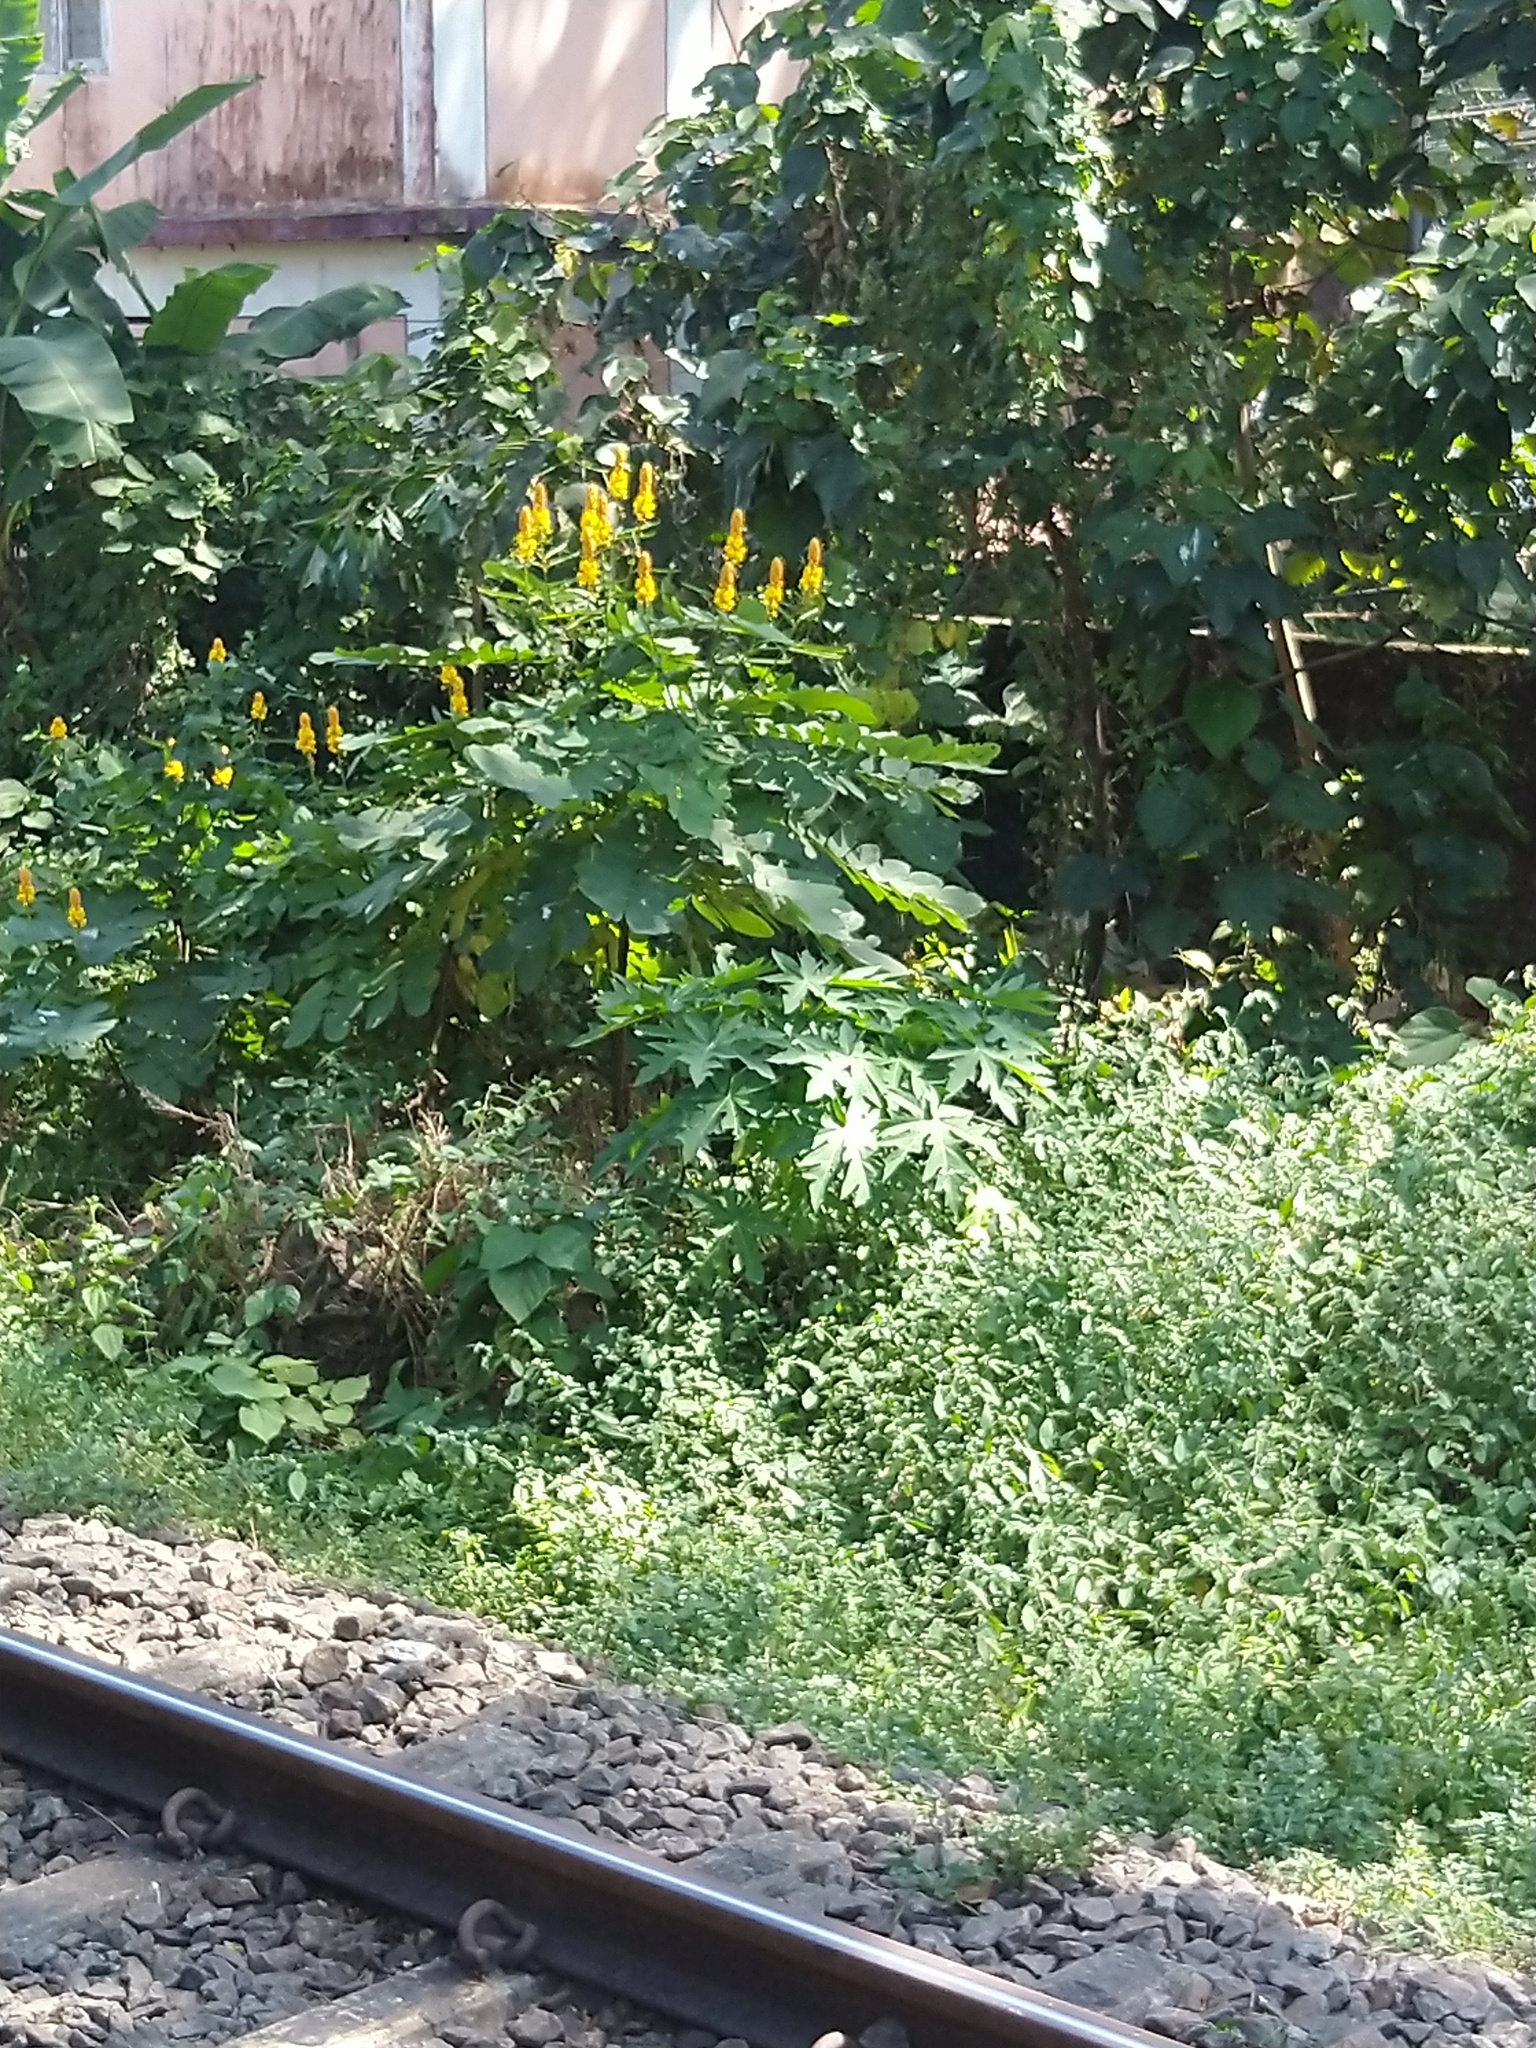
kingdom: Plantae
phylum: Tracheophyta
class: Magnoliopsida
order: Fabales
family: Fabaceae
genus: Senna
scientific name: Senna alata
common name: Emperor's candlesticks
